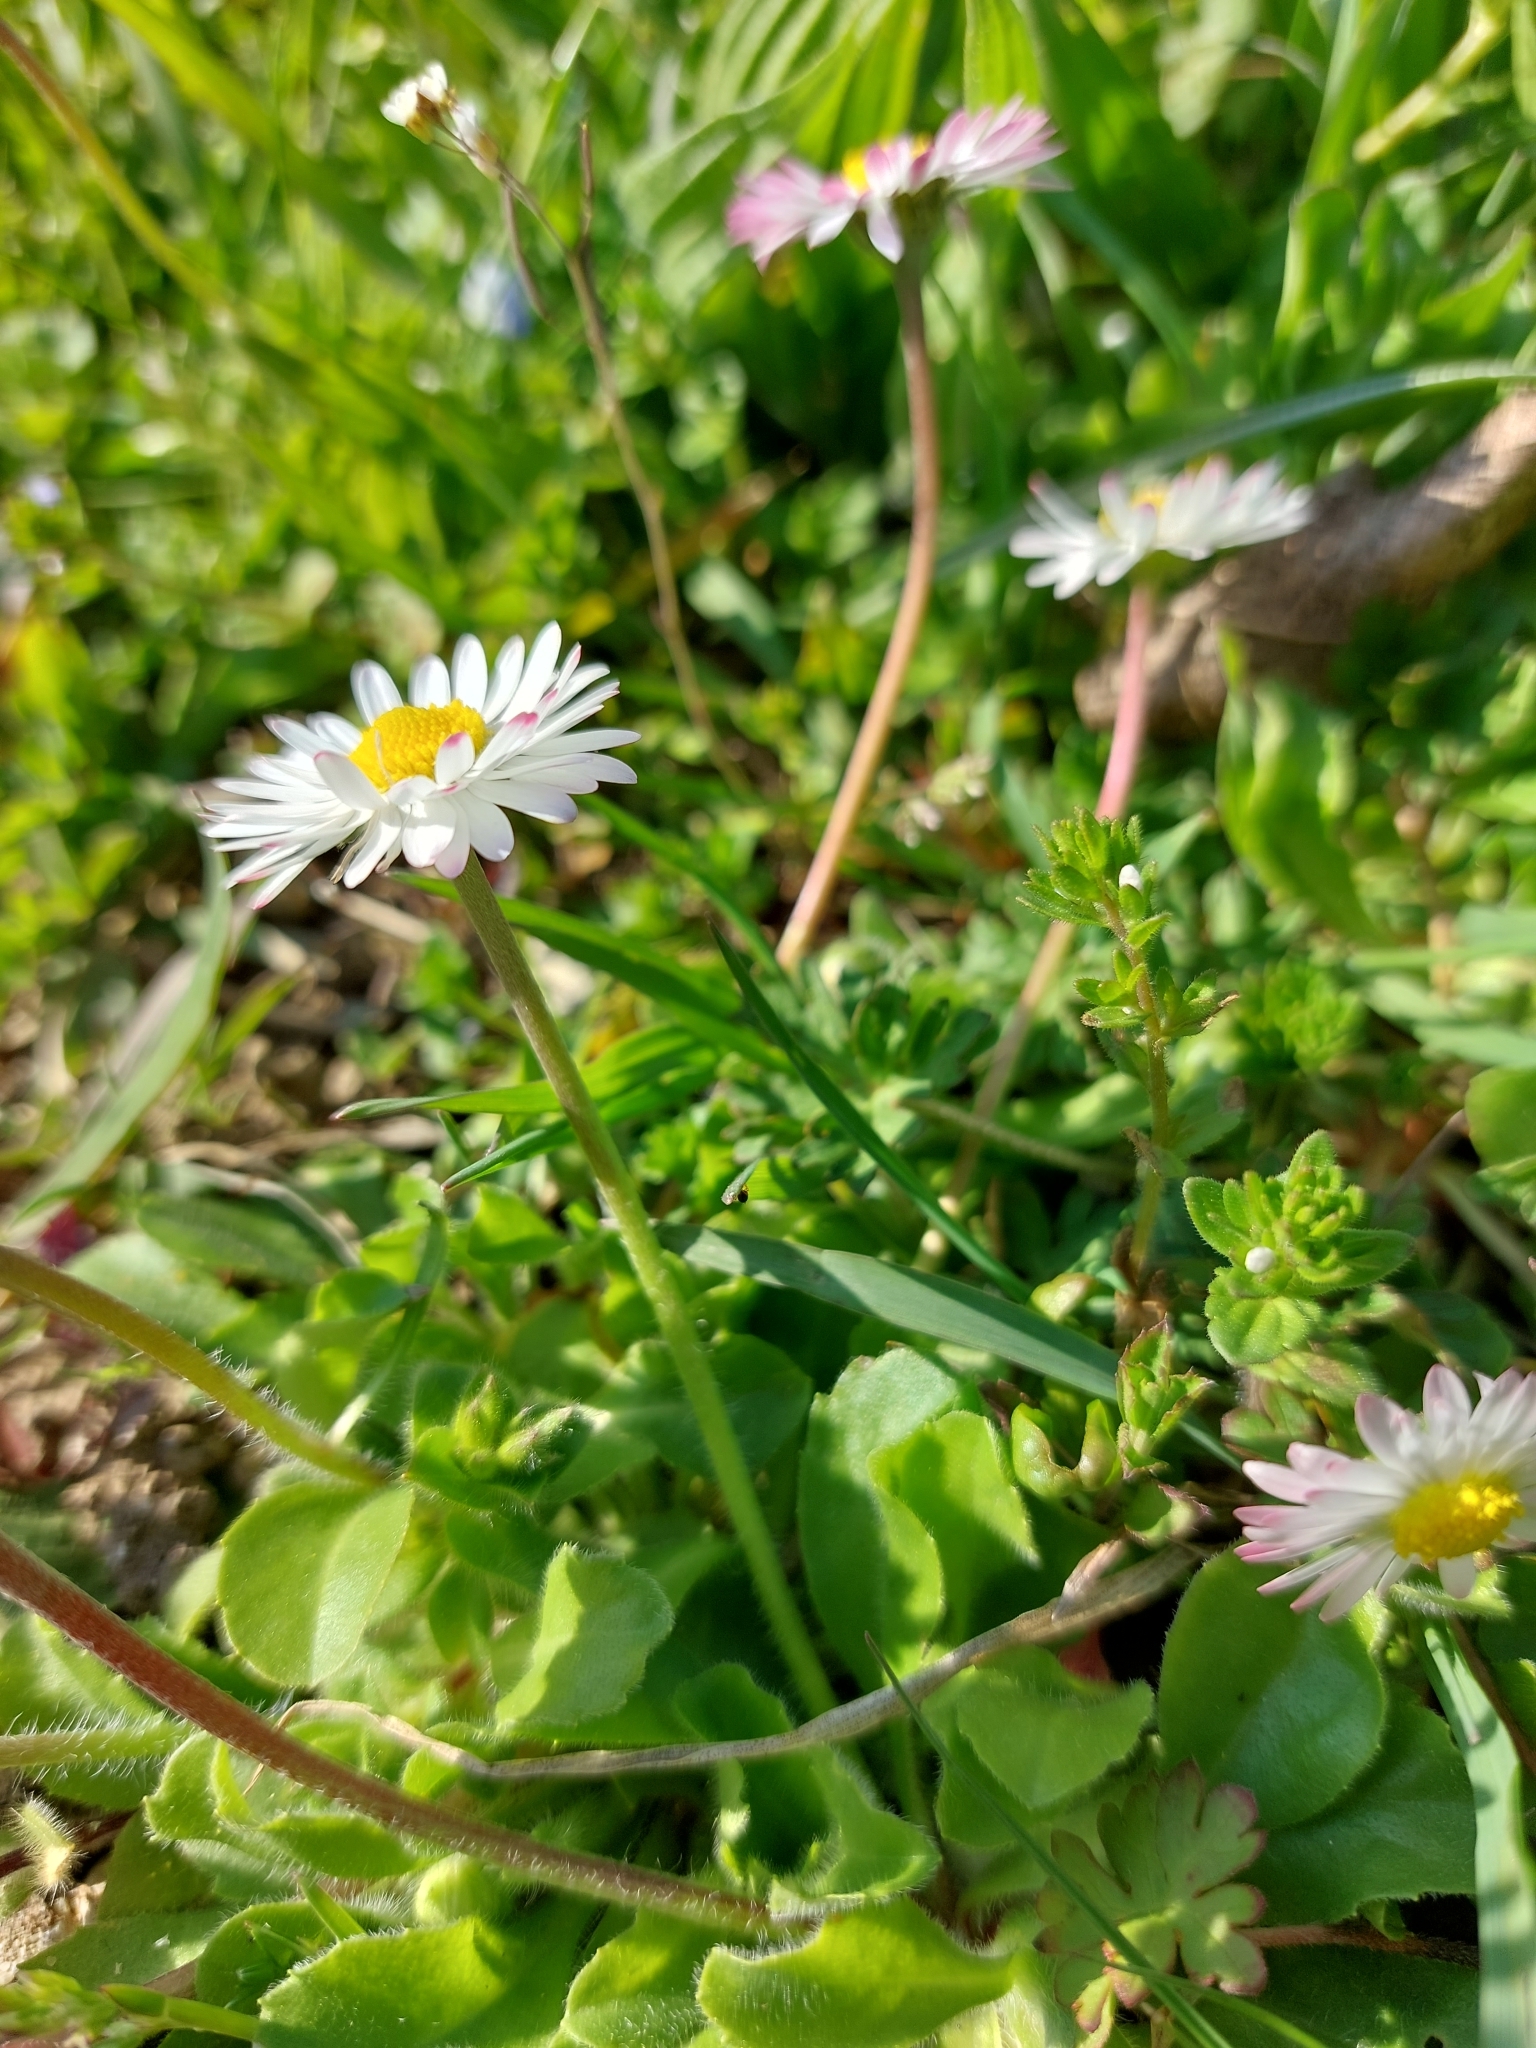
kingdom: Plantae
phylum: Tracheophyta
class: Magnoliopsida
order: Asterales
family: Asteraceae
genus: Bellis
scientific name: Bellis perennis
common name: Lawndaisy
